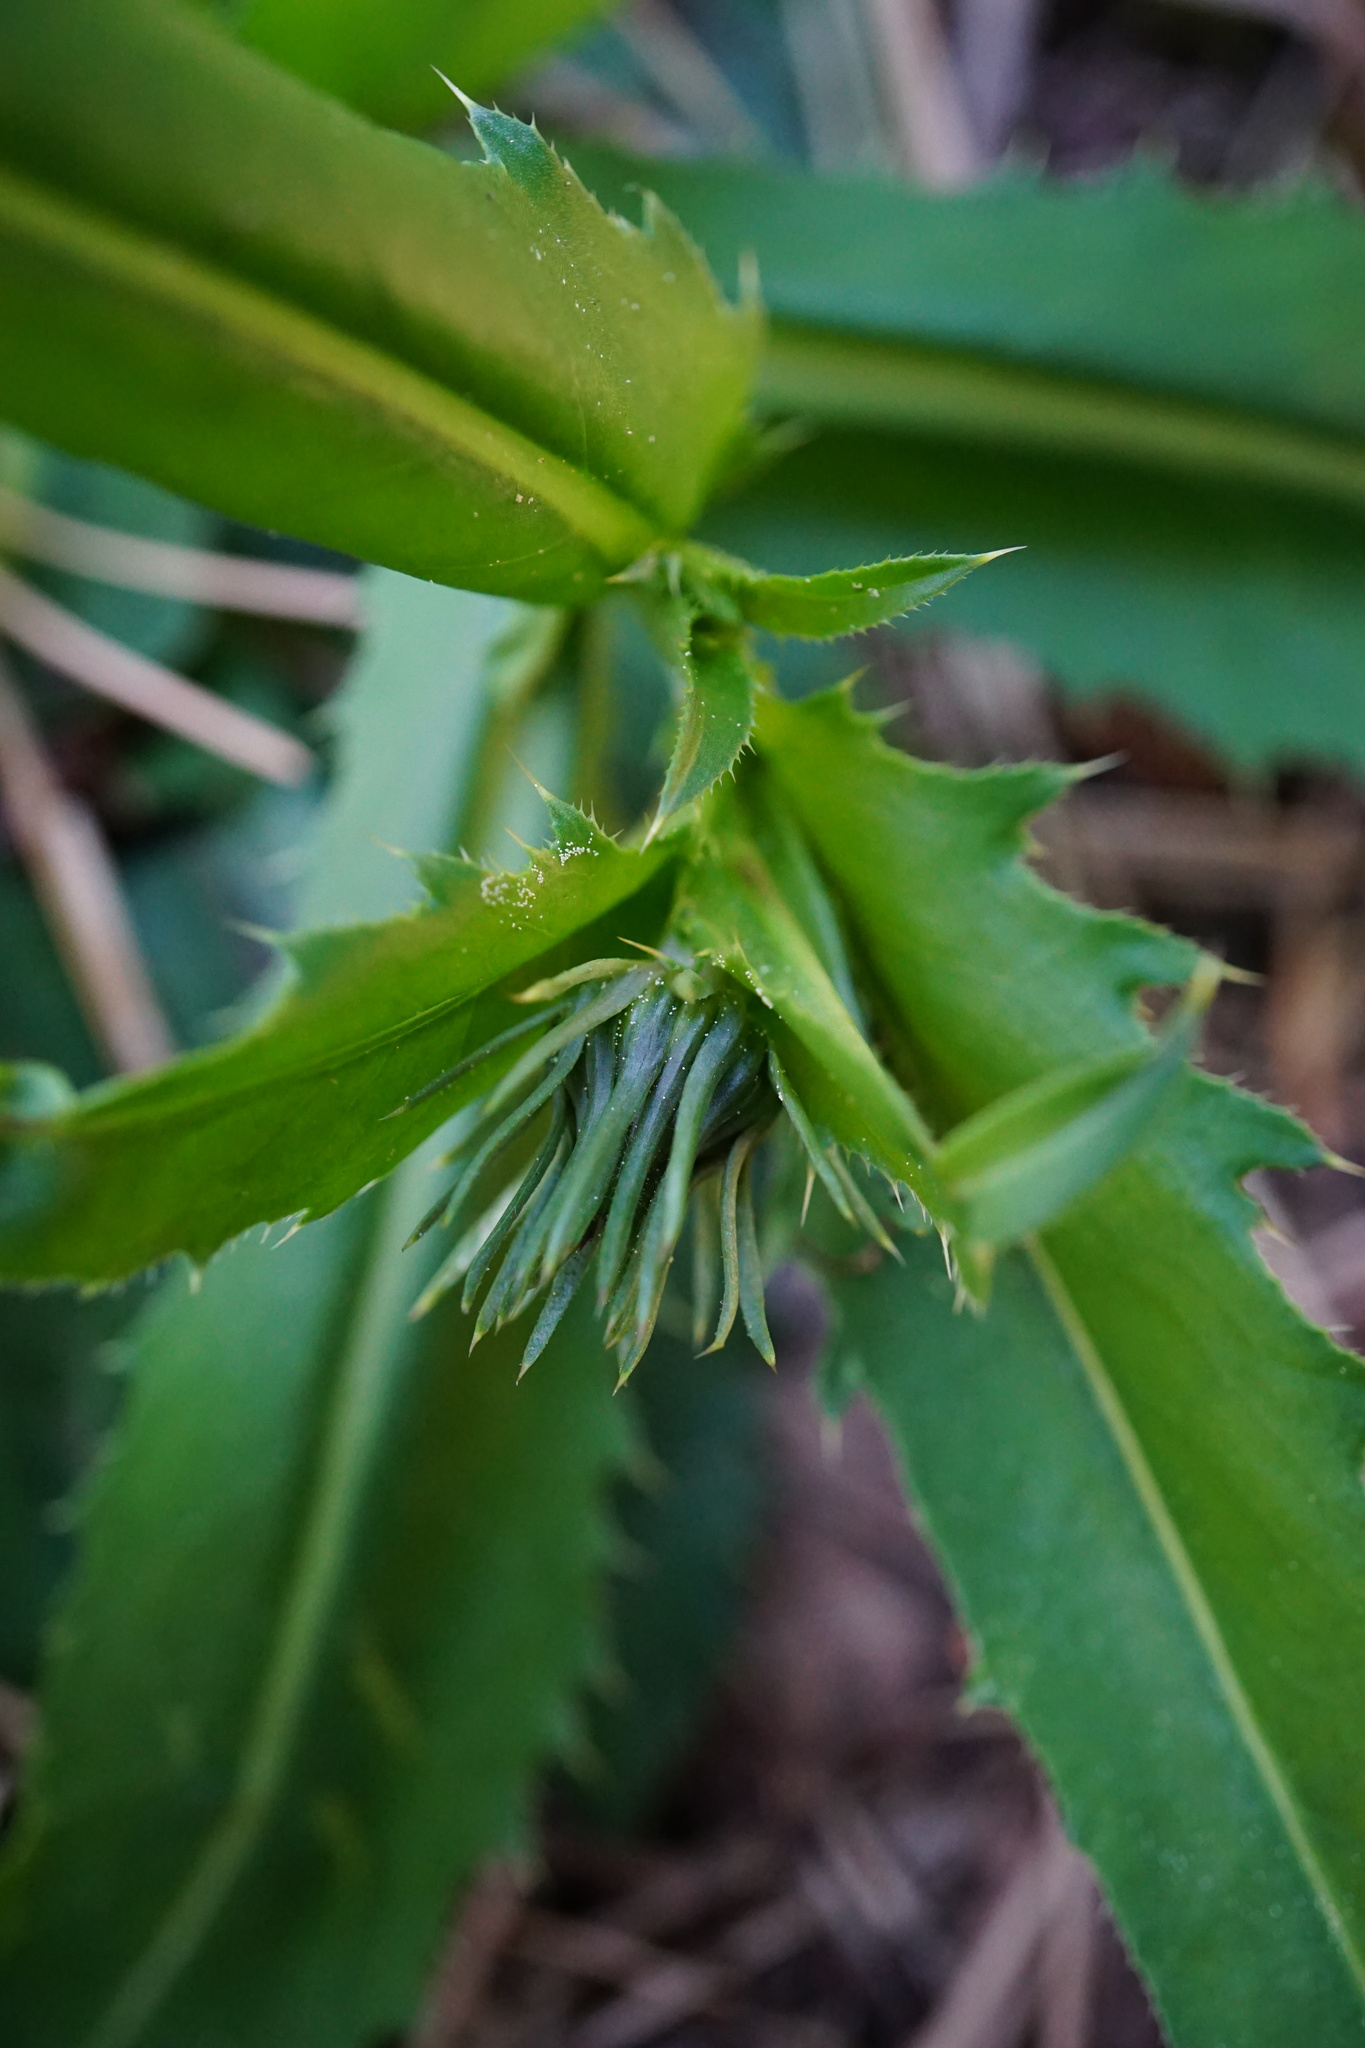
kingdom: Plantae
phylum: Tracheophyta
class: Magnoliopsida
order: Asterales
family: Asteraceae
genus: Carduus
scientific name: Carduus defloratus
